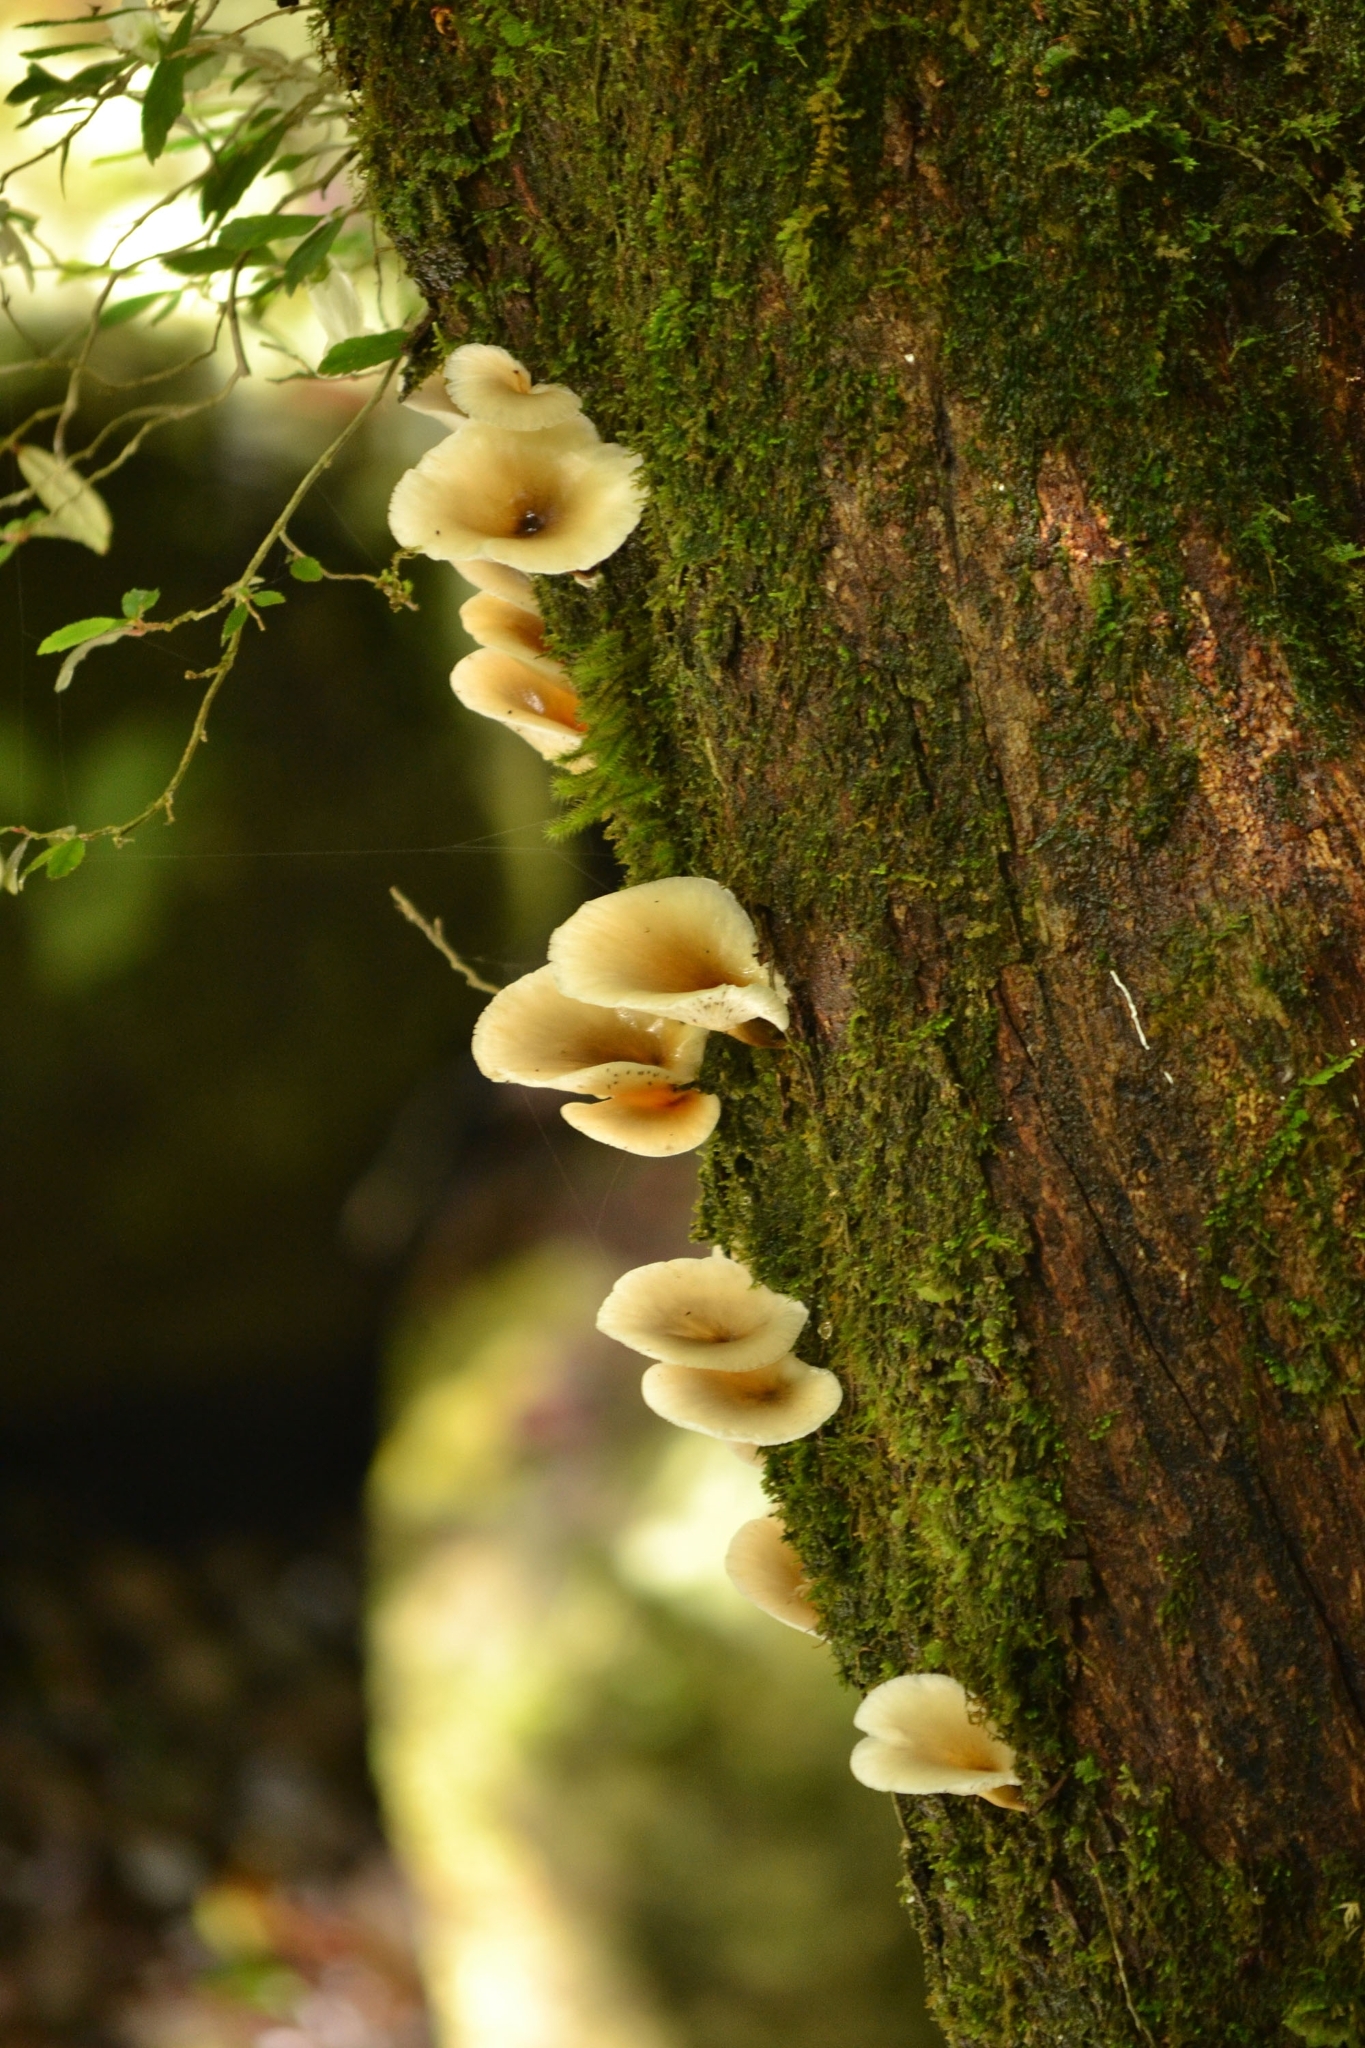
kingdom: Fungi
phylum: Basidiomycota
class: Agaricomycetes
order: Agaricales
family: Omphalotaceae
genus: Omphalotus
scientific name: Omphalotus nidiformis
